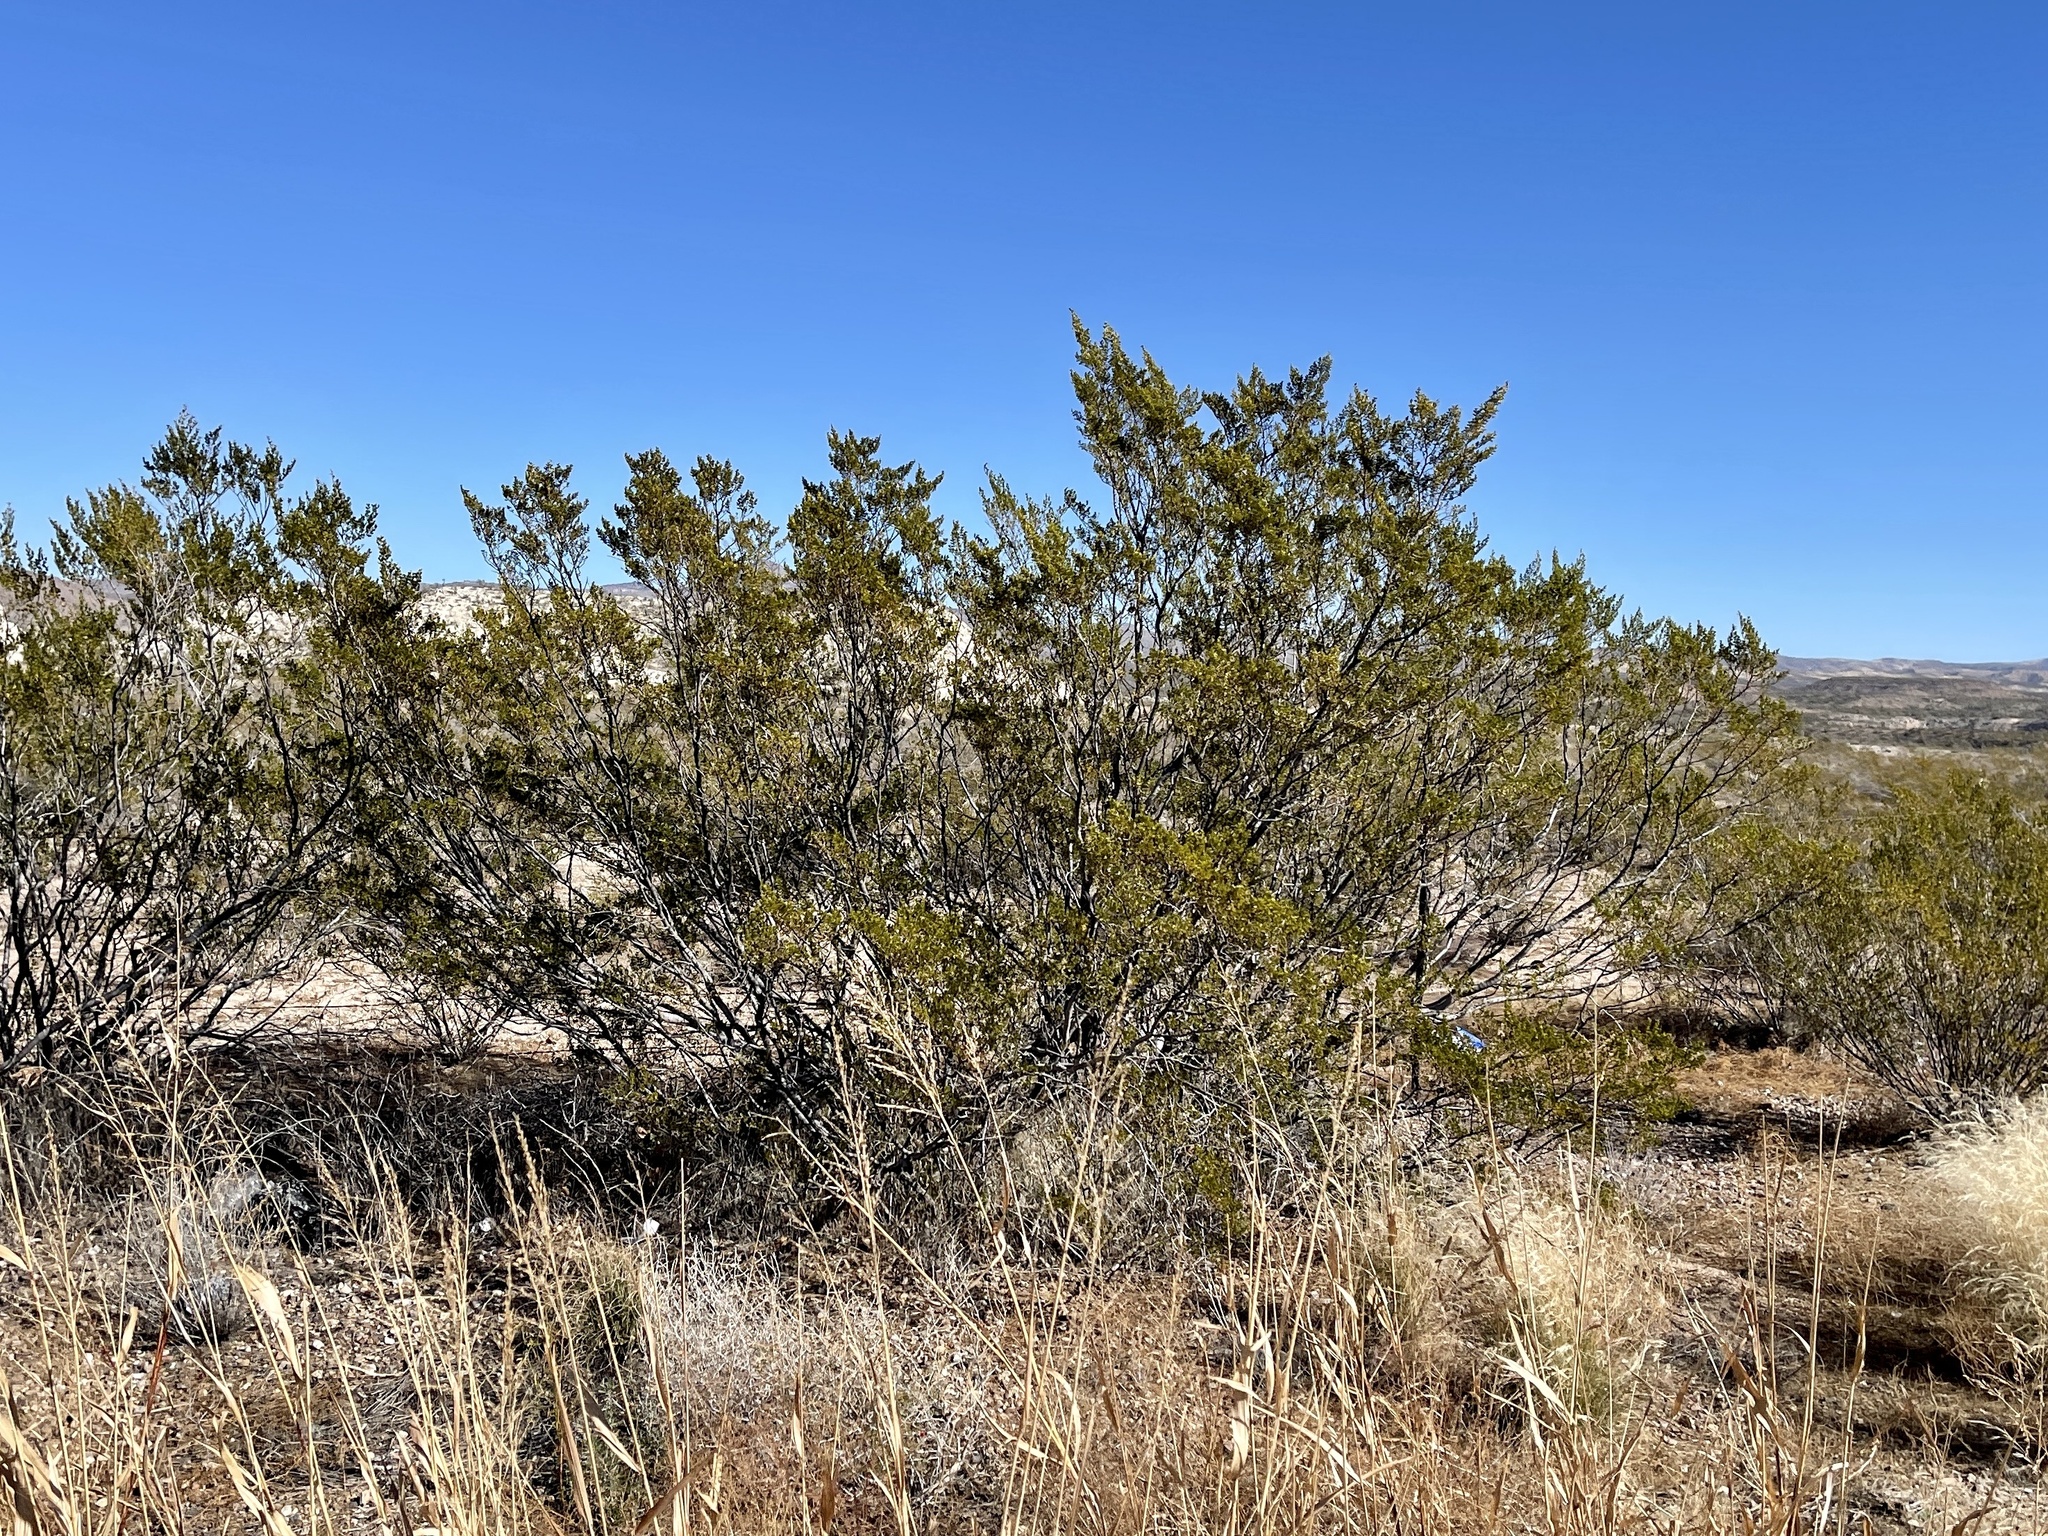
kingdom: Plantae
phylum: Tracheophyta
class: Magnoliopsida
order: Zygophyllales
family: Zygophyllaceae
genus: Larrea
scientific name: Larrea tridentata
